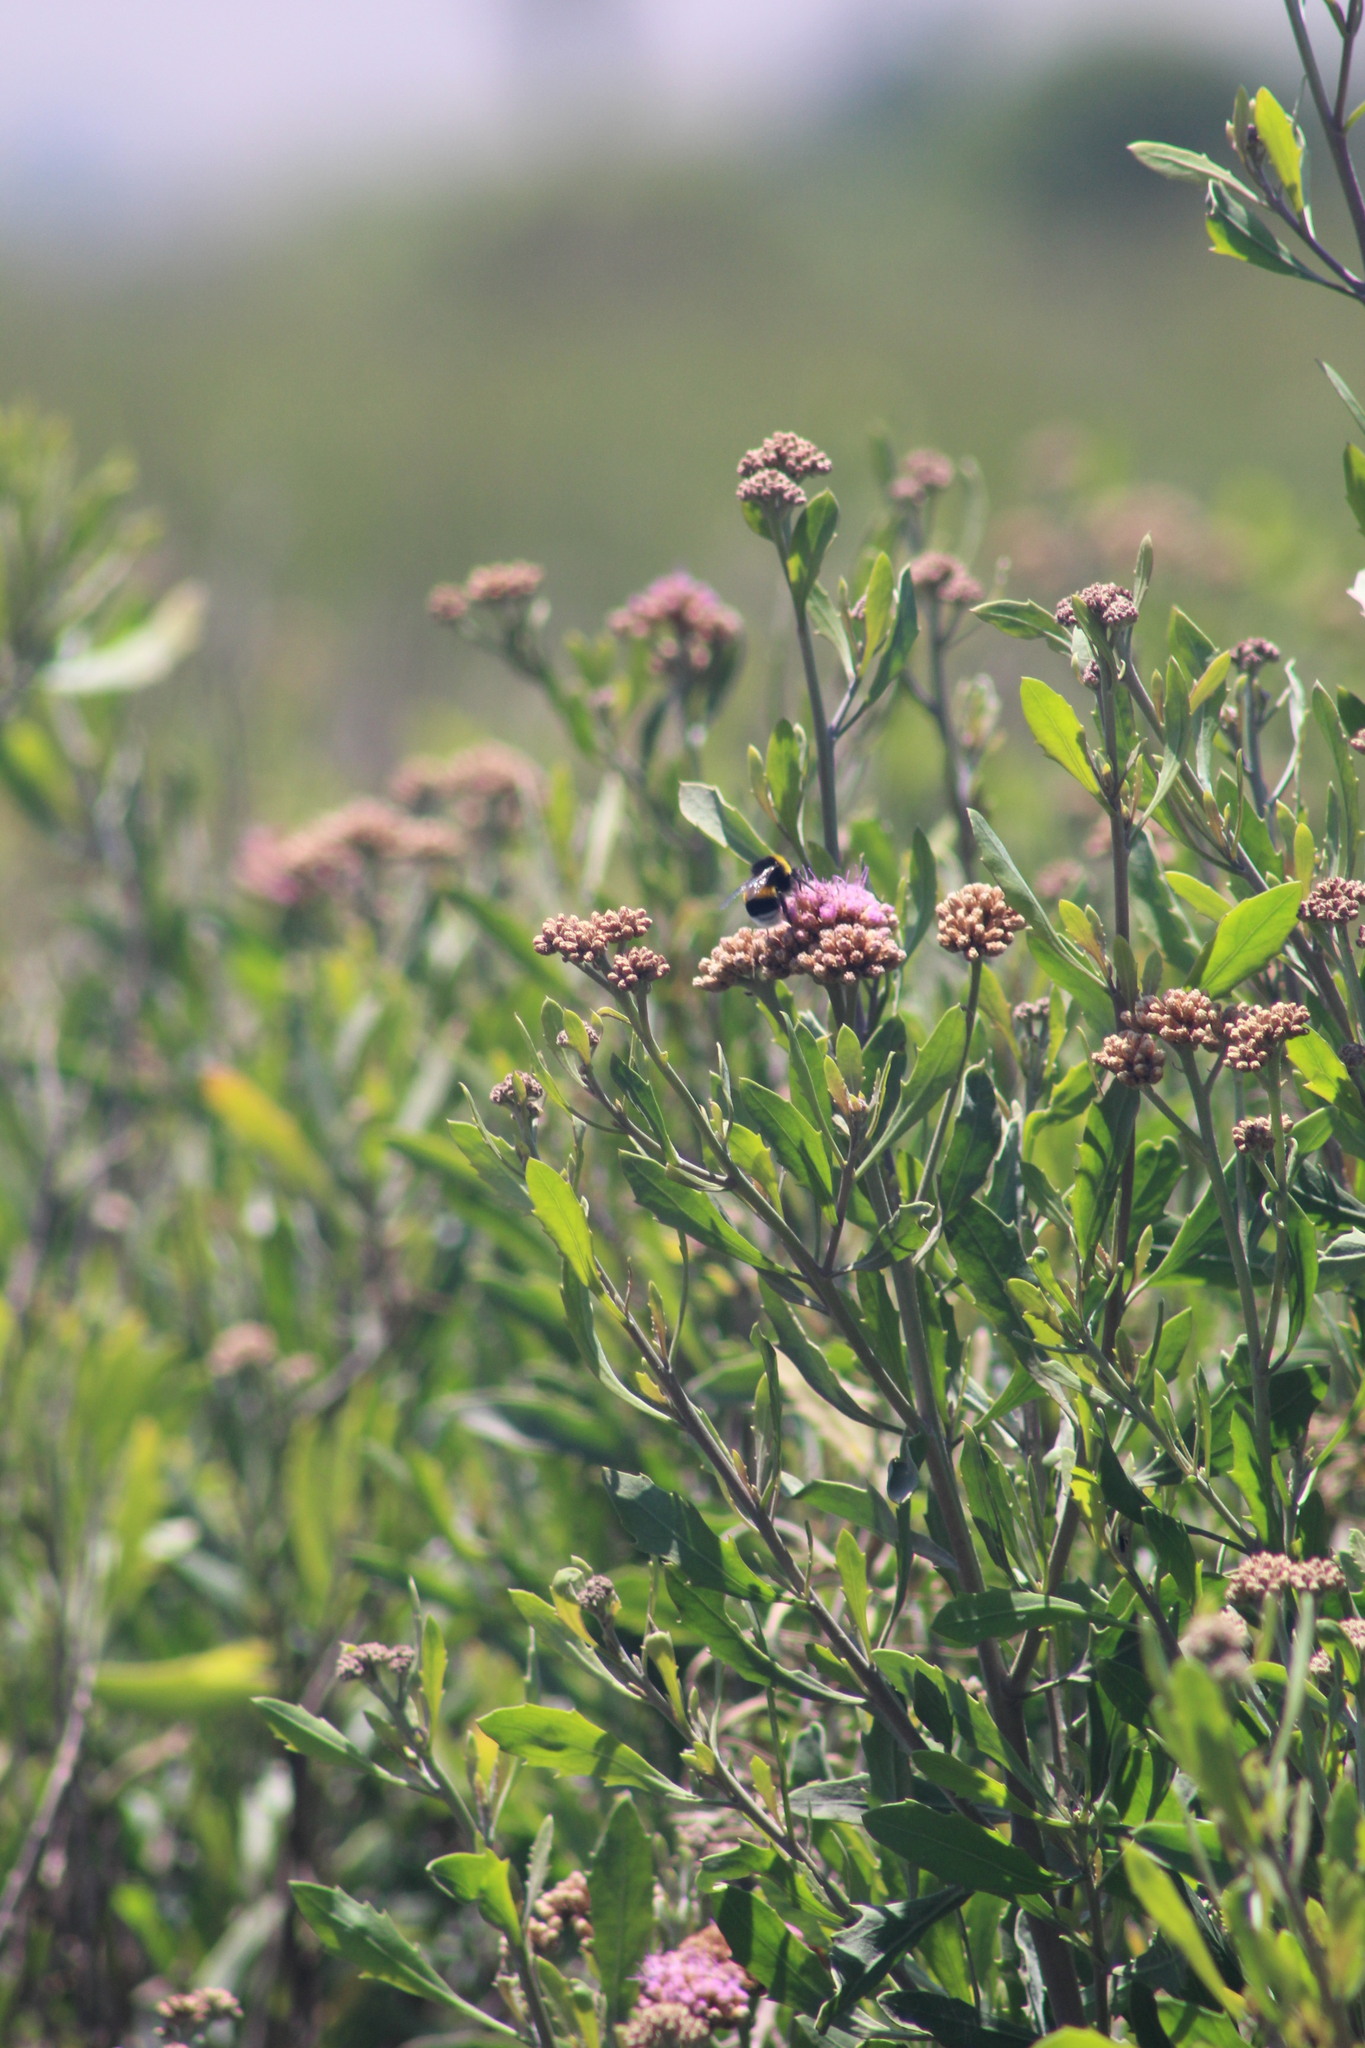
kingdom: Animalia
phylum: Arthropoda
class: Insecta
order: Hymenoptera
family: Apidae
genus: Bombus
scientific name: Bombus terrestris
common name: Buff-tailed bumblebee
